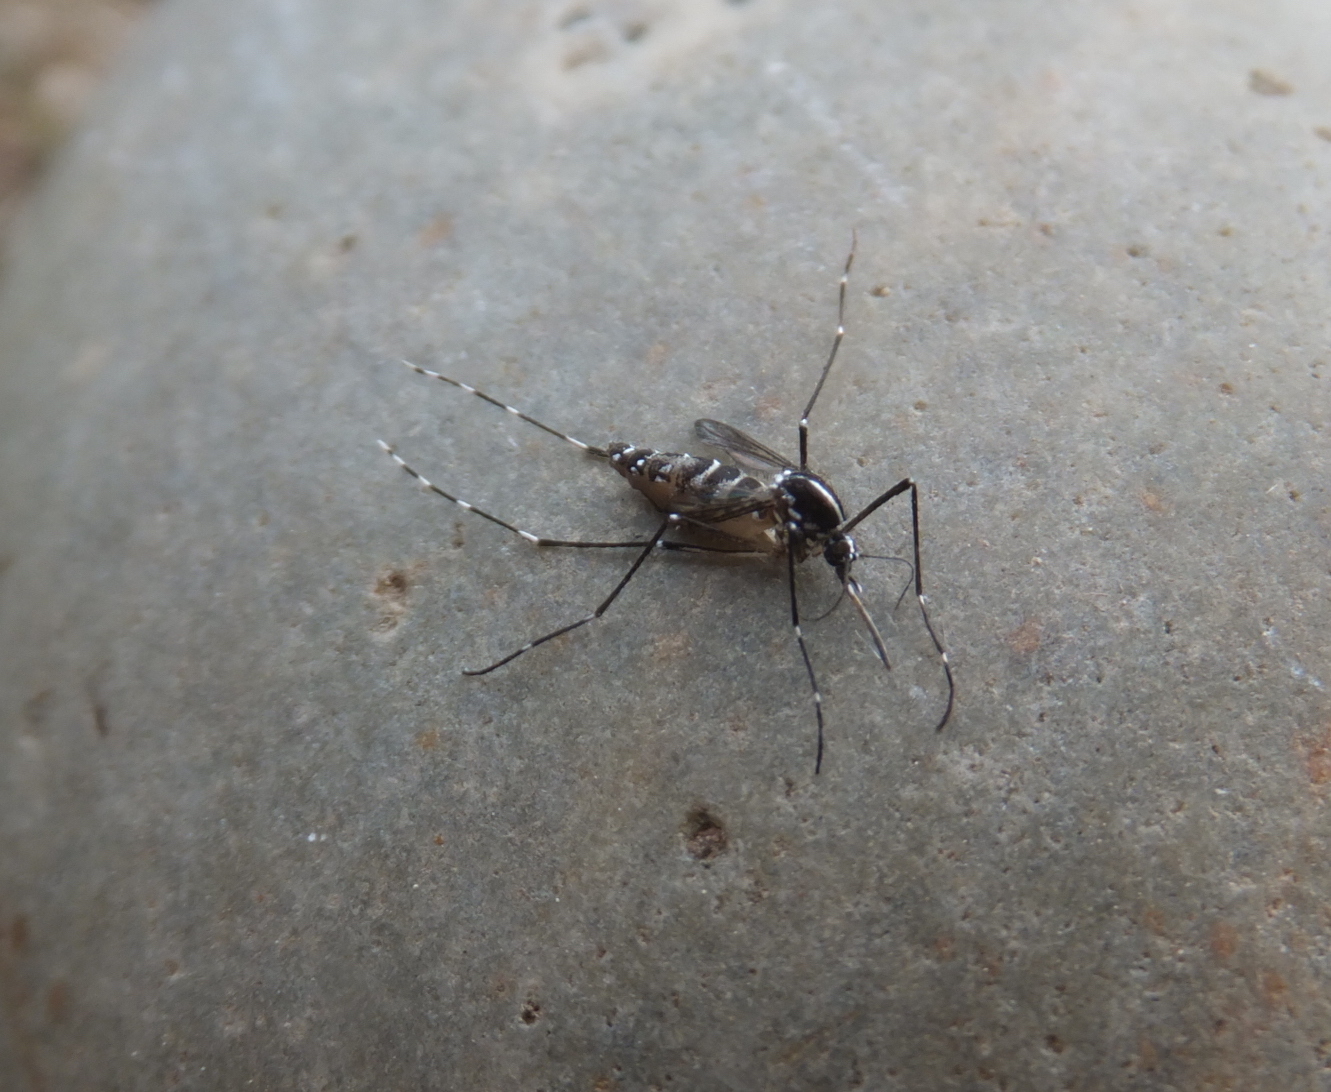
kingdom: Animalia
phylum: Arthropoda
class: Insecta
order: Diptera
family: Culicidae
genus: Aedes
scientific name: Aedes albopictus
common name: Tiger mosquito
